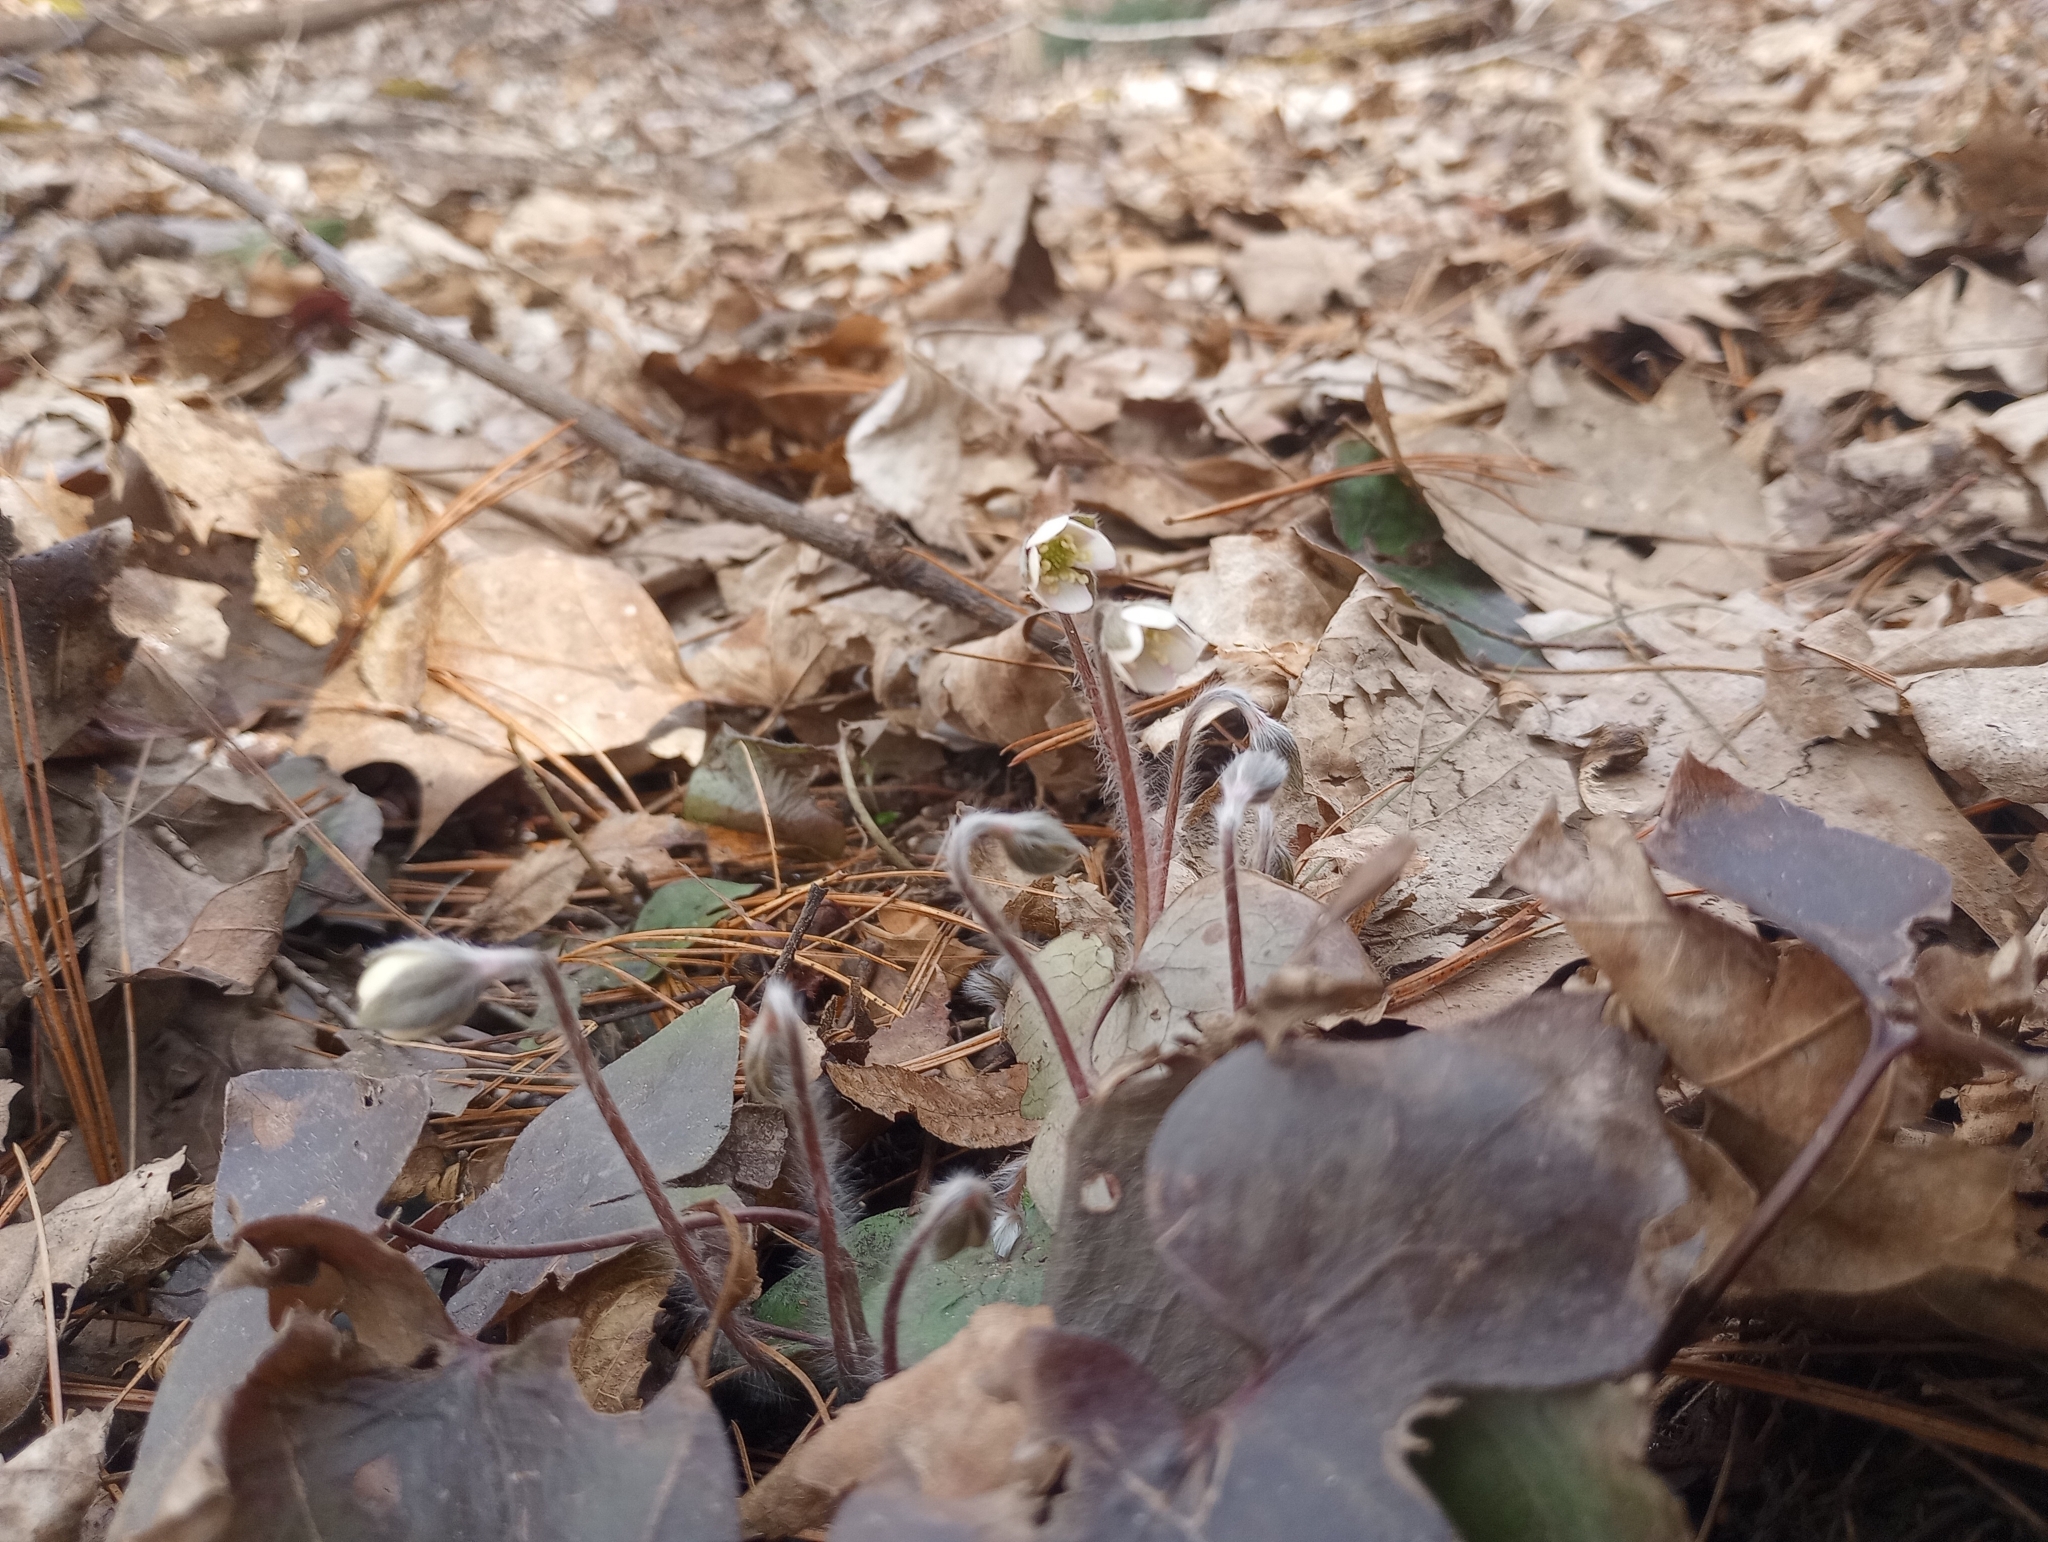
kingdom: Plantae
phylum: Tracheophyta
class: Magnoliopsida
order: Ranunculales
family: Ranunculaceae
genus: Hepatica
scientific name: Hepatica acutiloba
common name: Sharp-lobed hepatica
